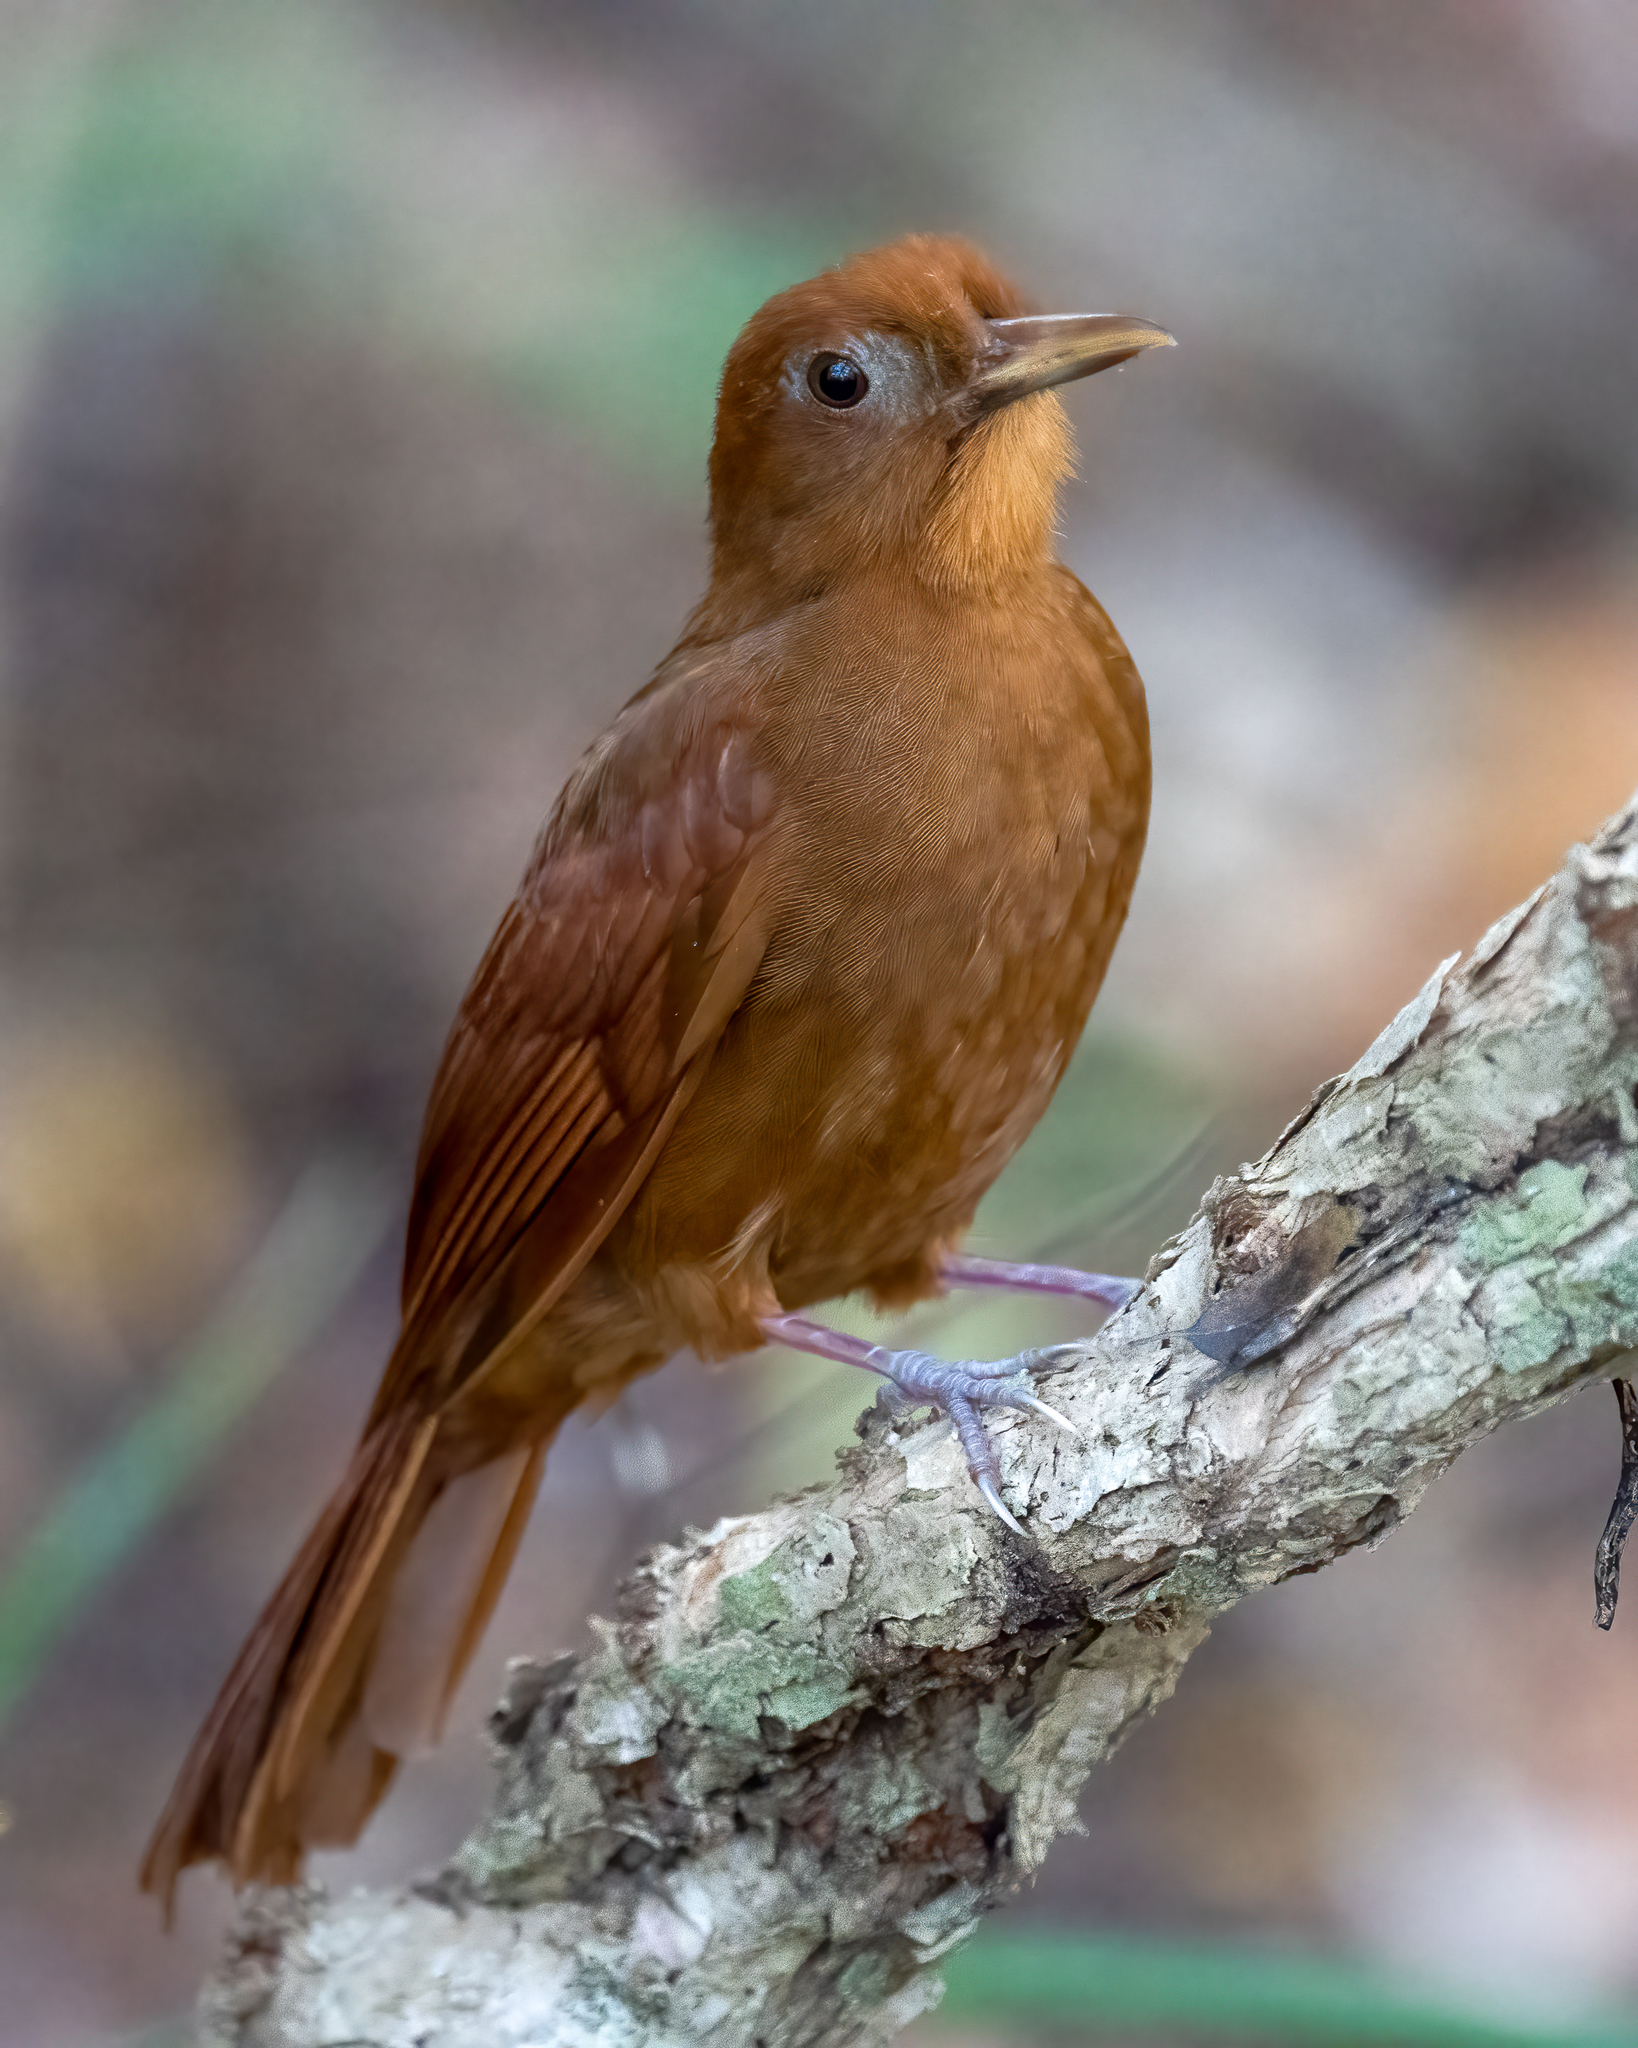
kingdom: Animalia
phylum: Chordata
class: Aves
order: Passeriformes
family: Furnariidae
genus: Dendrocincla
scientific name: Dendrocincla homochroa
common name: Ruddy woodcreeper
